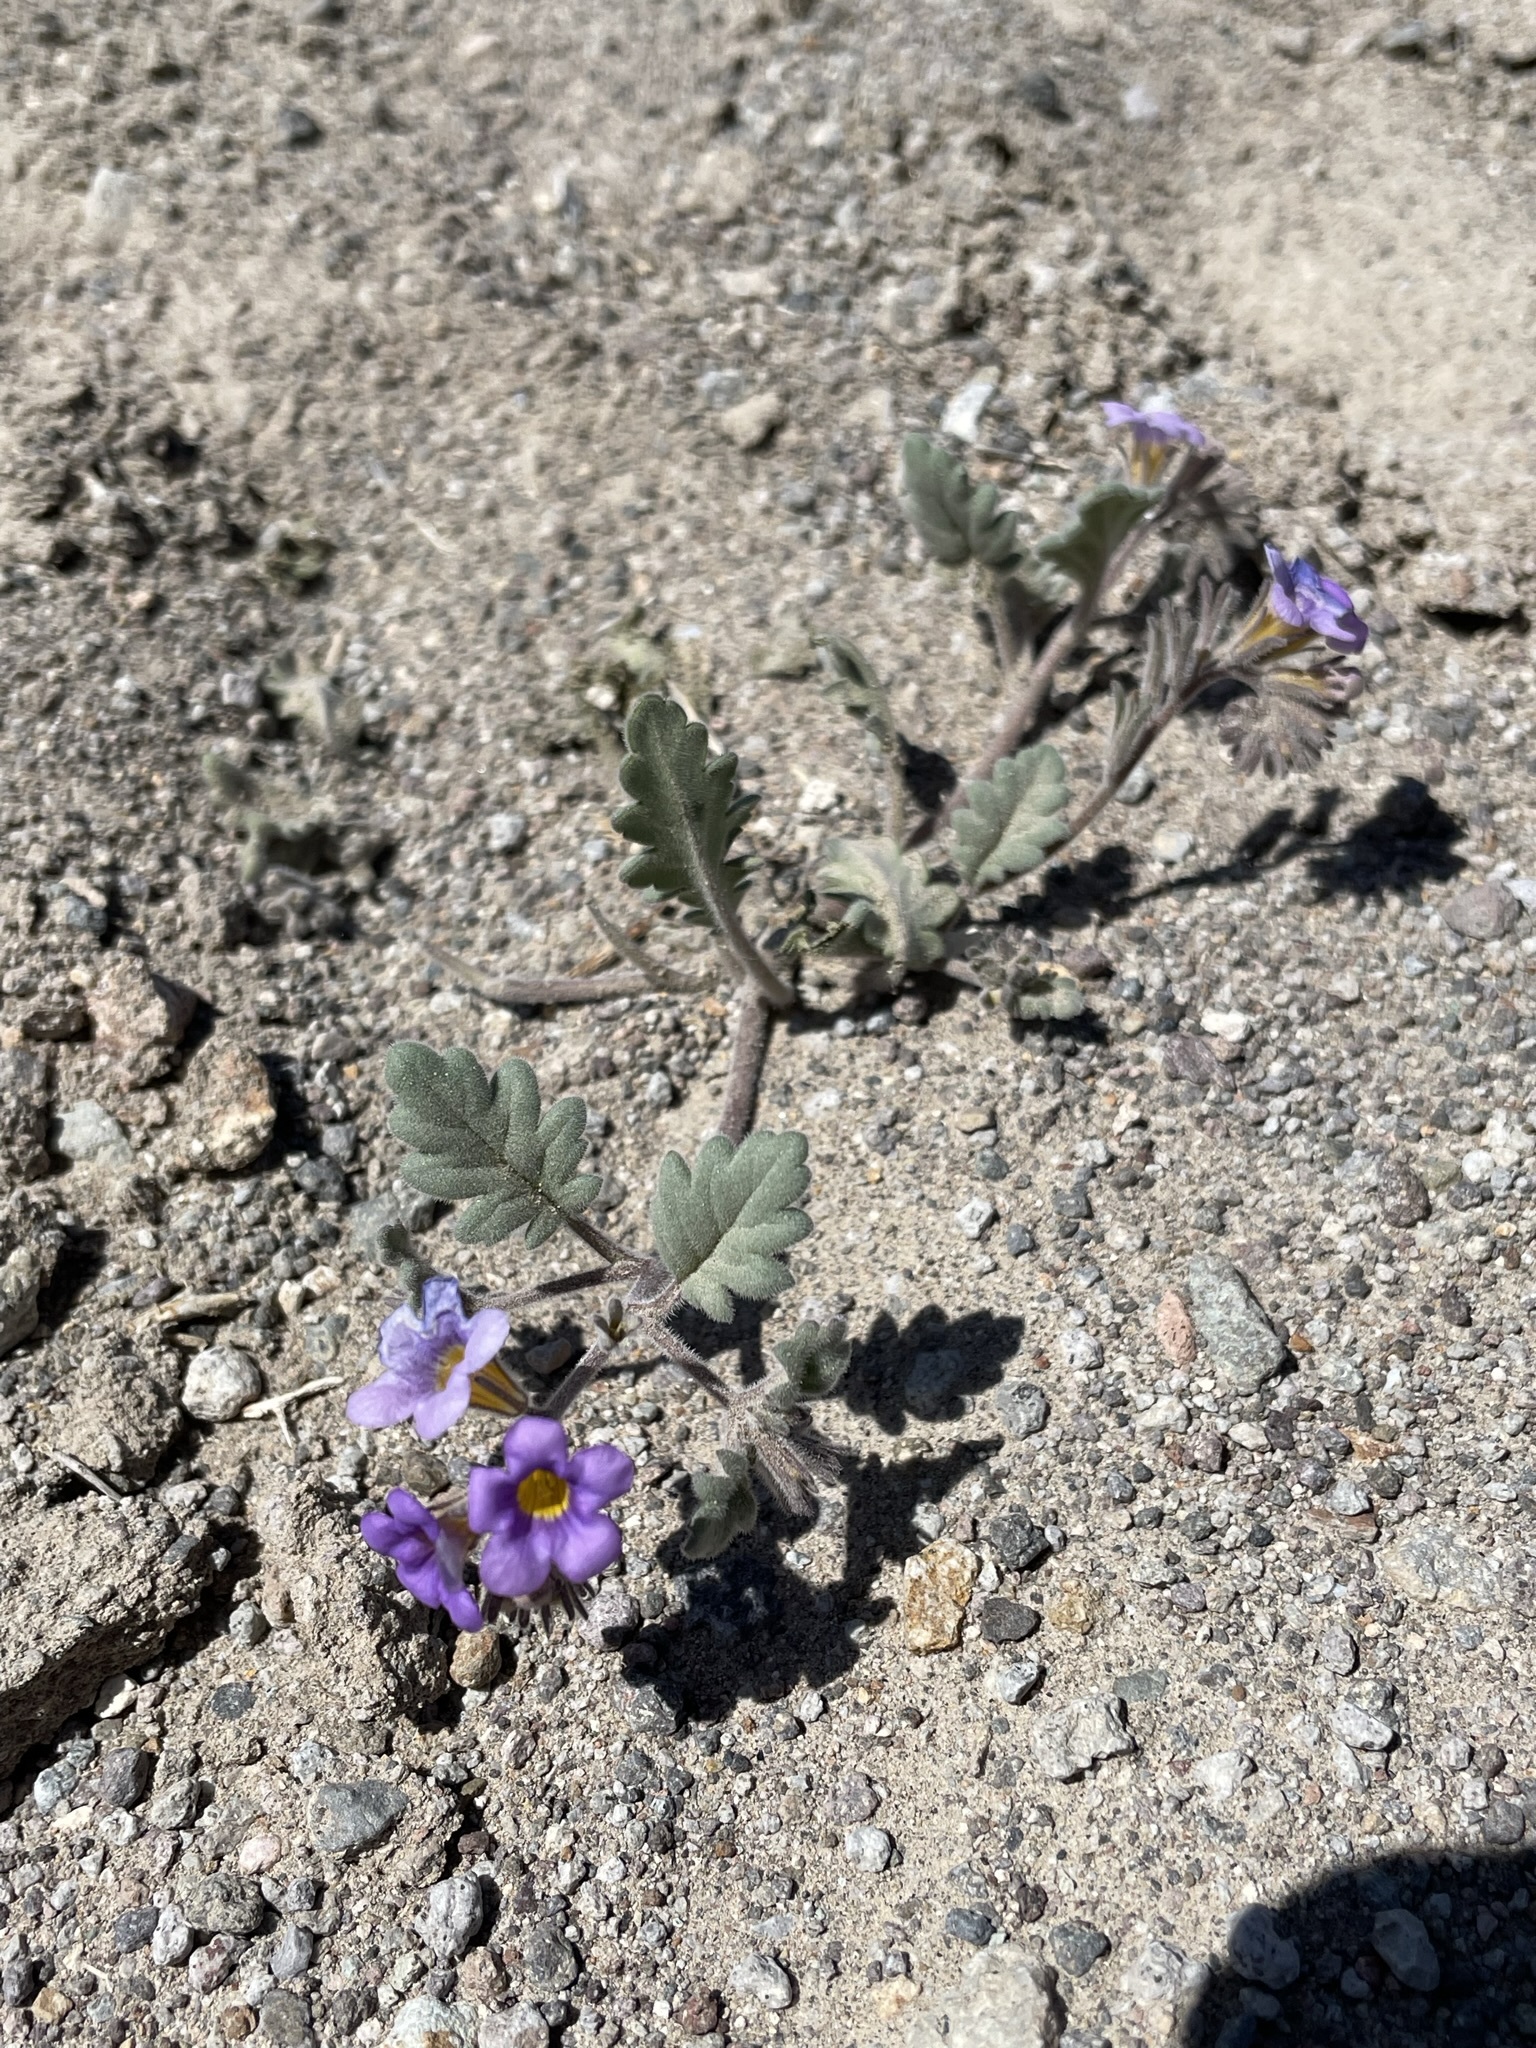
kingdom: Plantae
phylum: Tracheophyta
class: Magnoliopsida
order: Boraginales
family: Hydrophyllaceae
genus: Phacelia
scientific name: Phacelia gymnoclada
